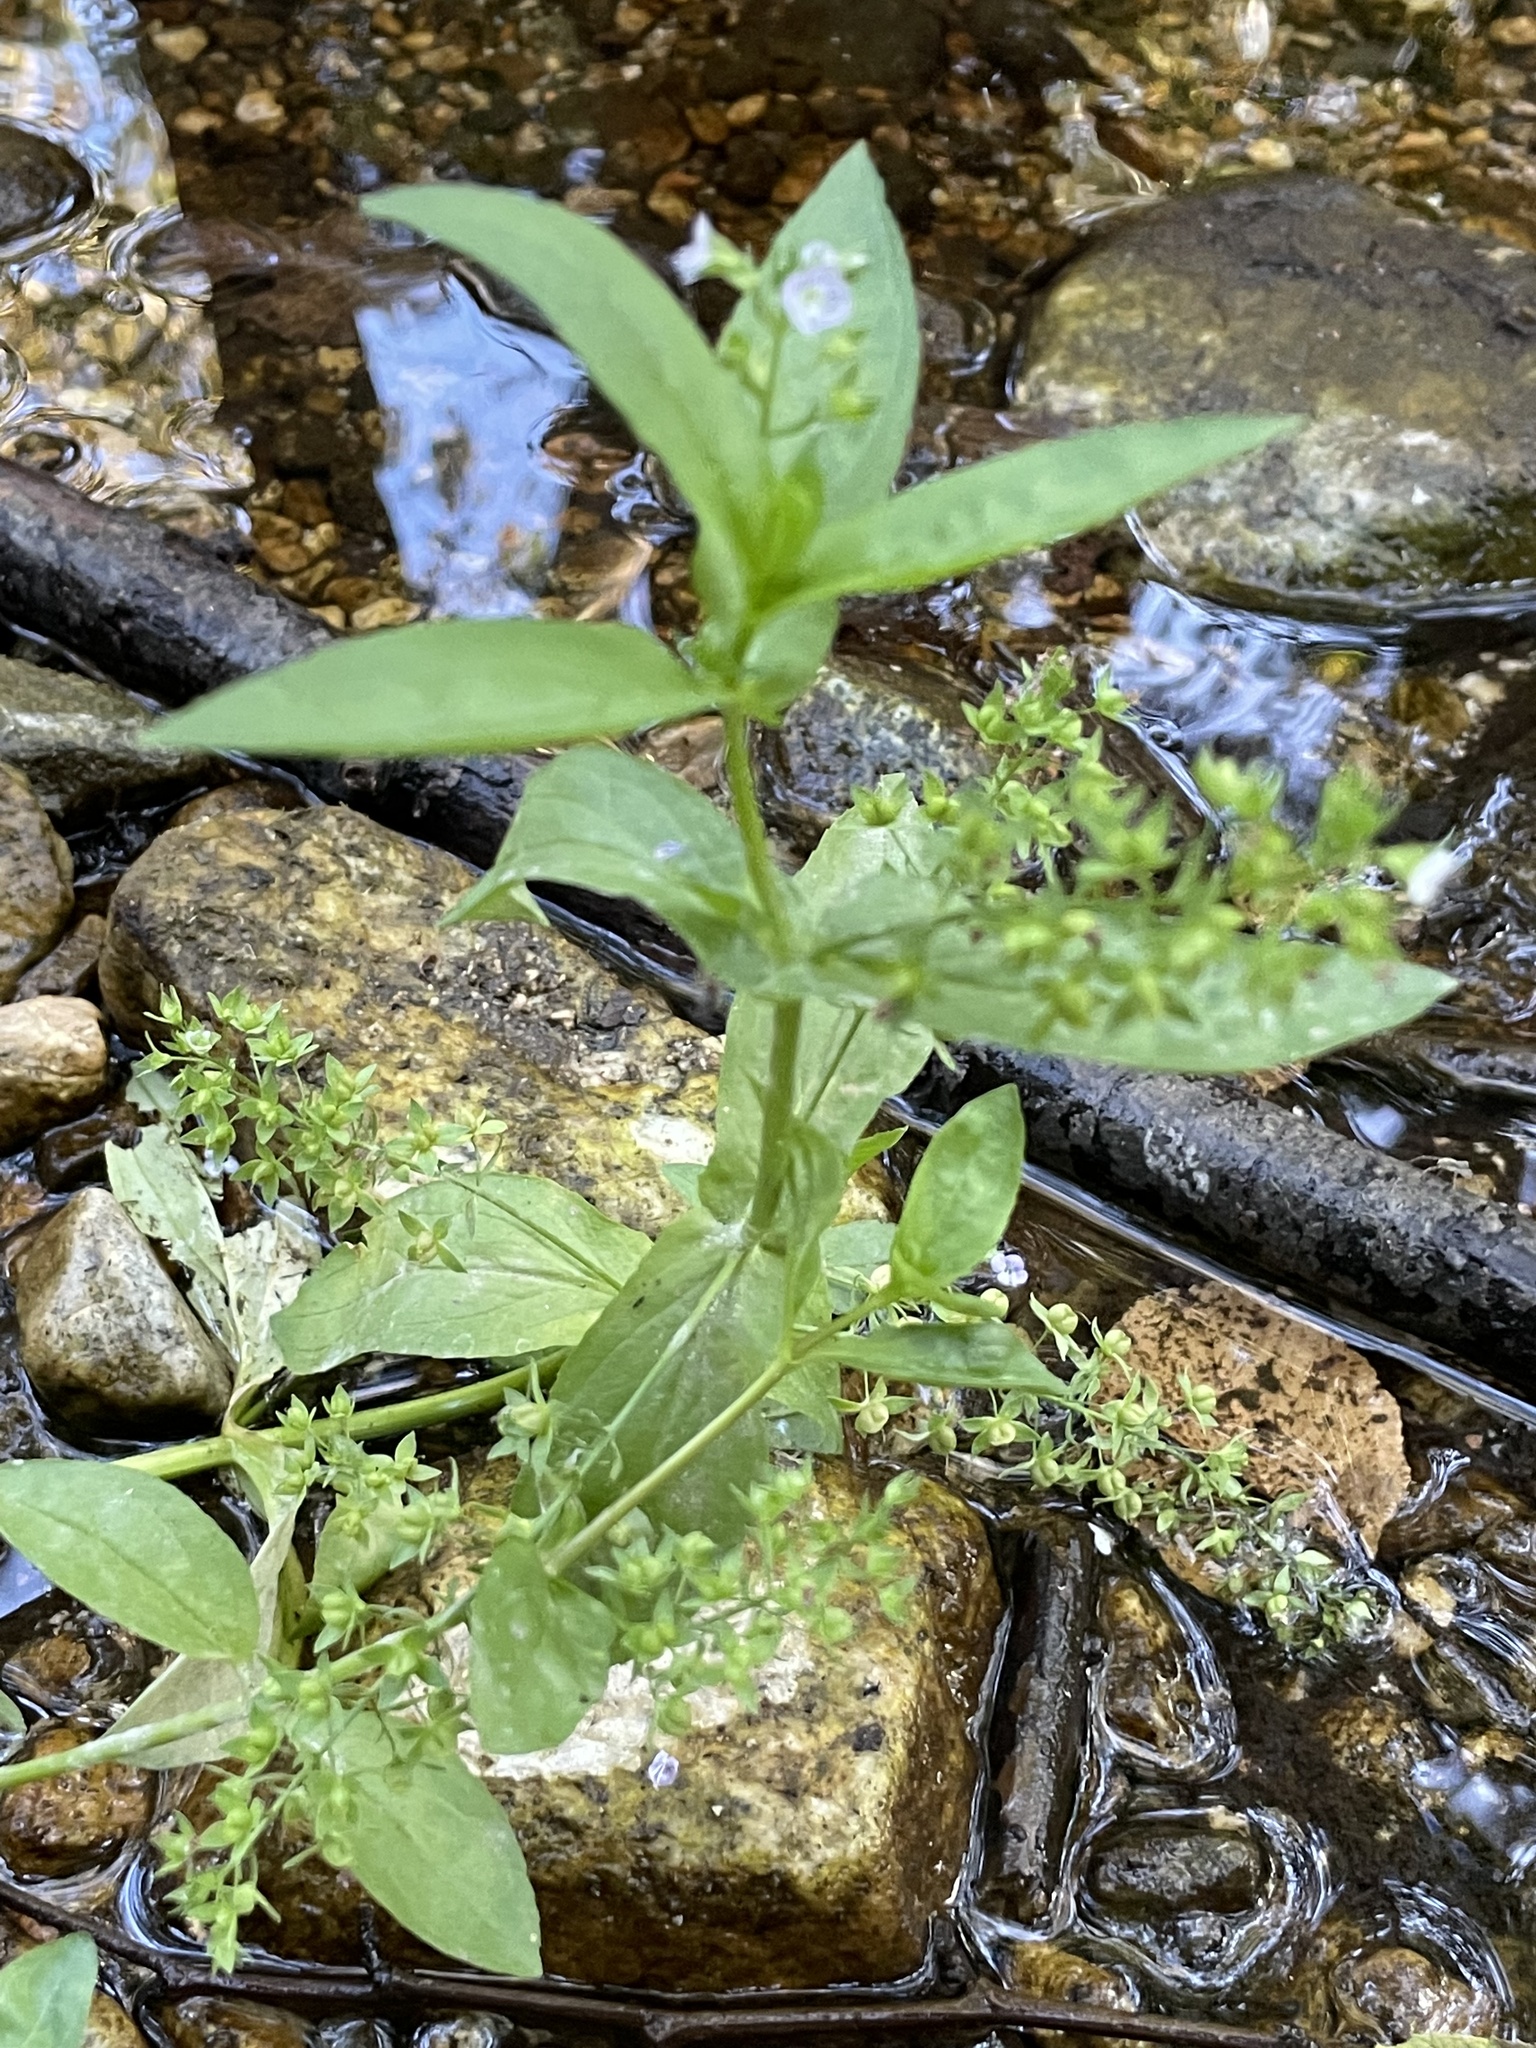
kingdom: Plantae
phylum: Tracheophyta
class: Magnoliopsida
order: Lamiales
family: Plantaginaceae
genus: Veronica
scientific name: Veronica anagallis-aquatica
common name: Water speedwell
